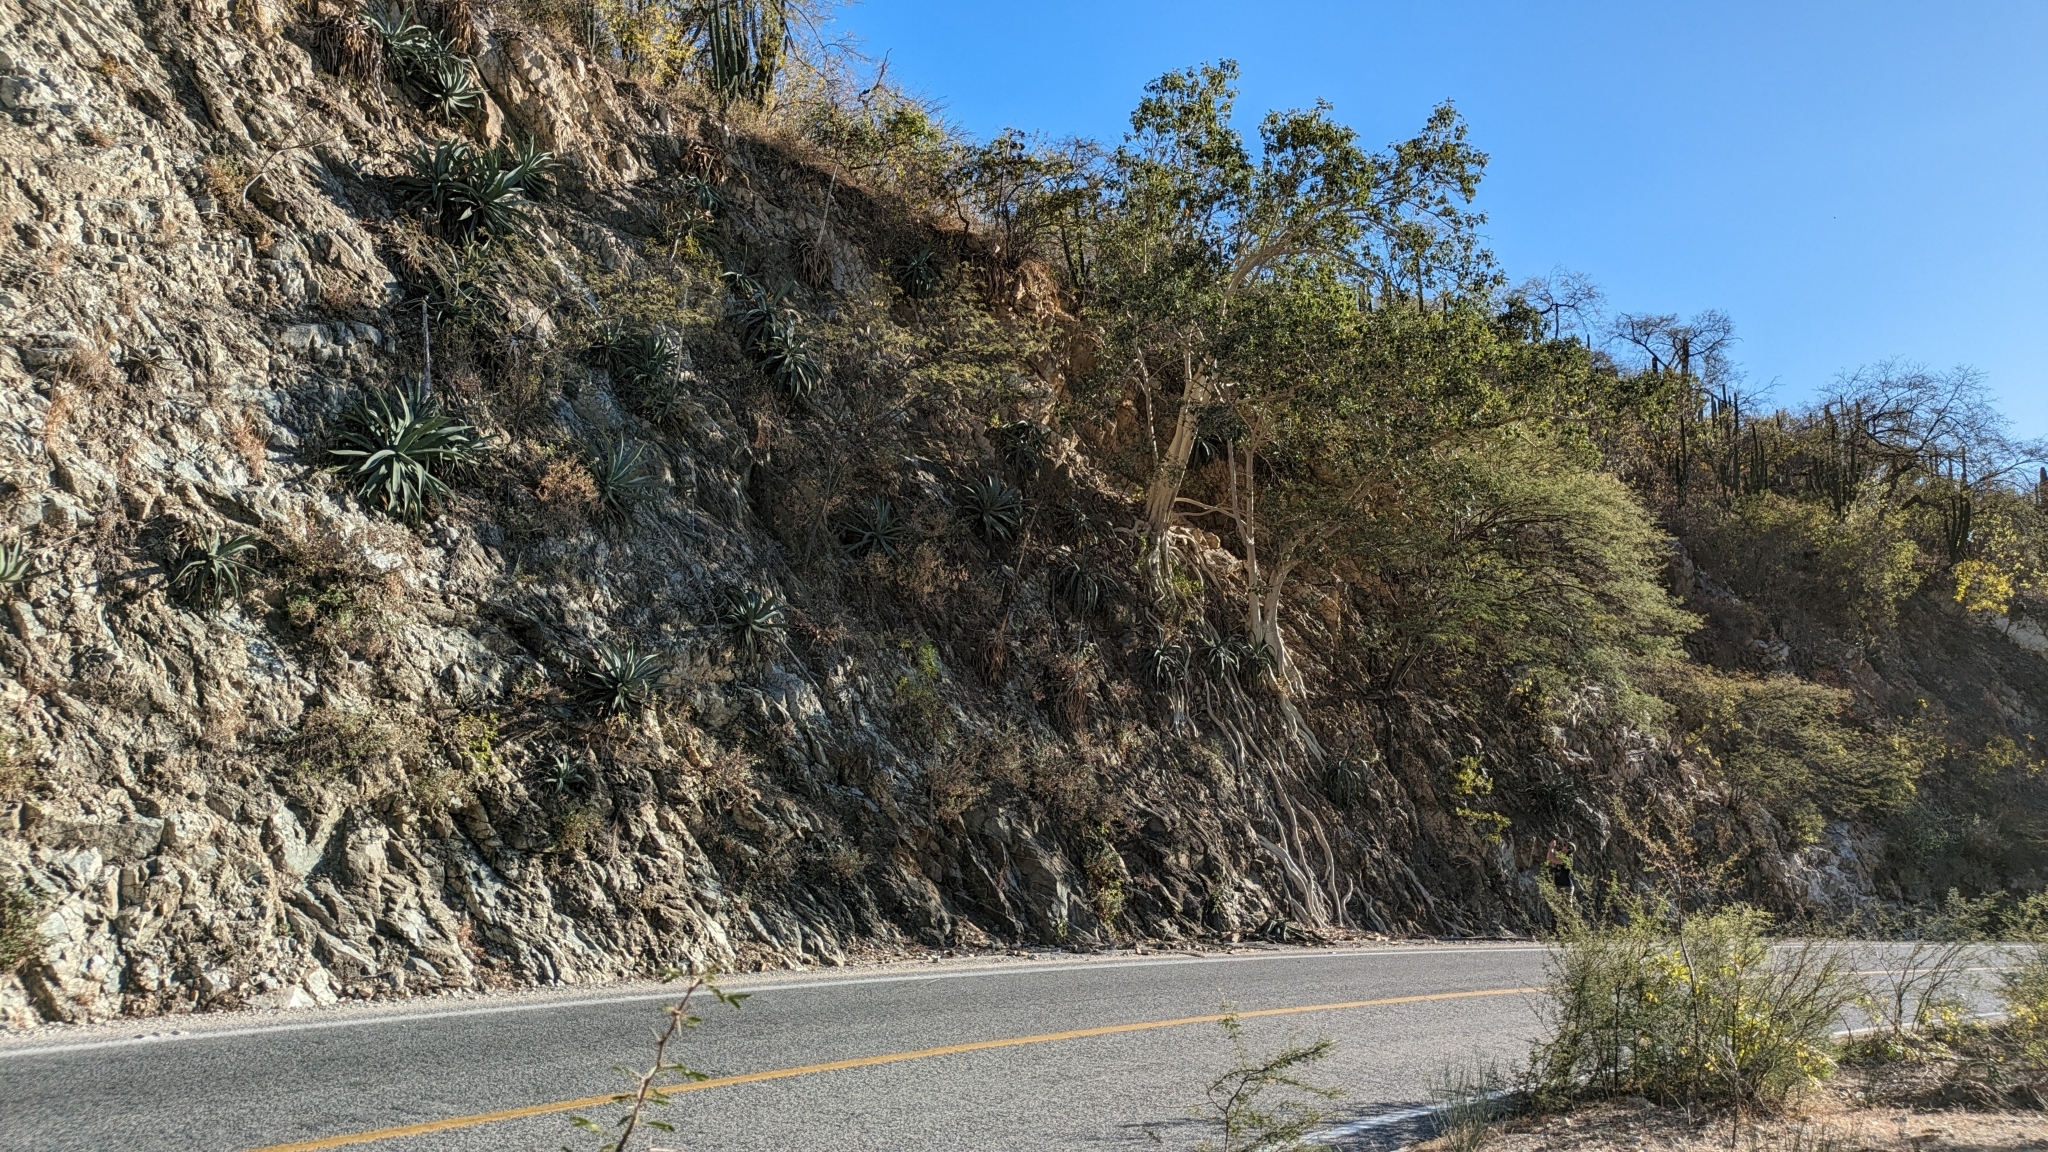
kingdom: Plantae
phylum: Tracheophyta
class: Magnoliopsida
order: Rosales
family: Moraceae
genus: Ficus
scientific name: Ficus petiolaris
